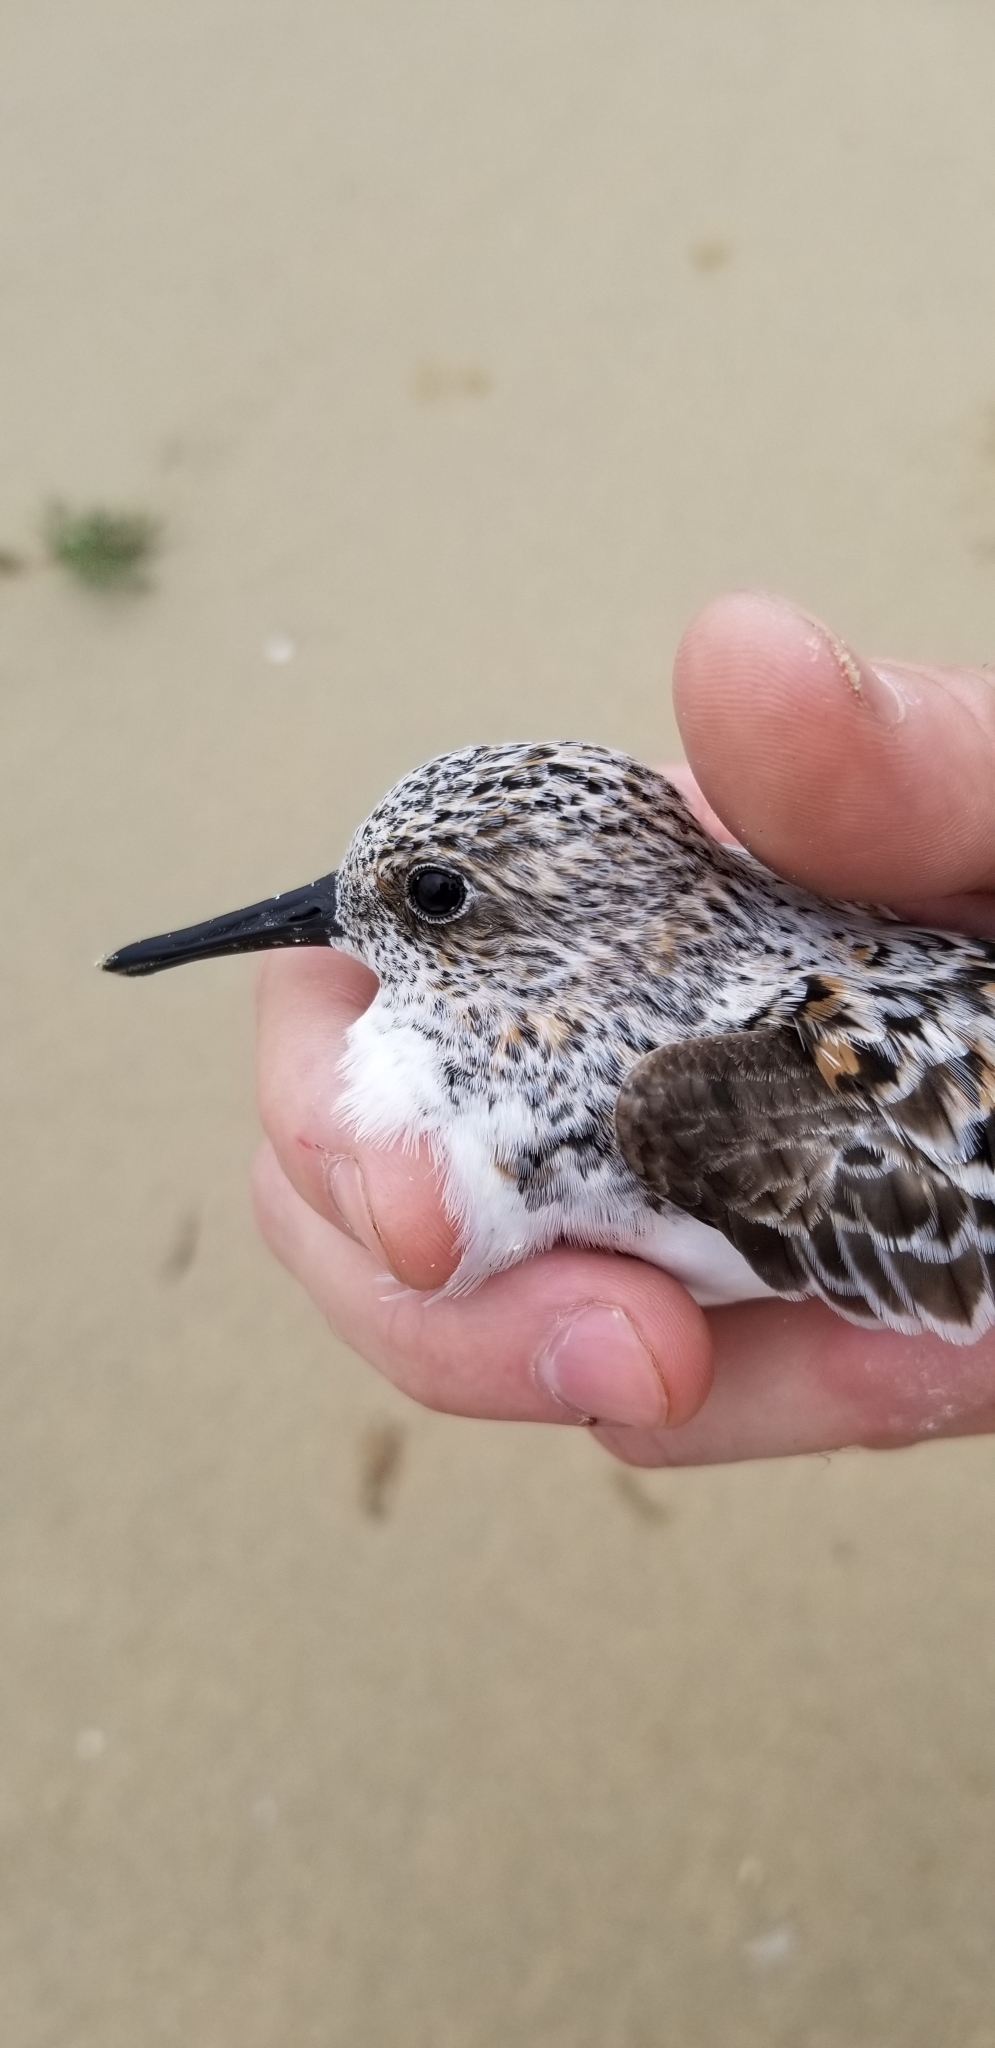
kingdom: Animalia
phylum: Chordata
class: Aves
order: Charadriiformes
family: Scolopacidae
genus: Calidris
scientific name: Calidris alba
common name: Sanderling
